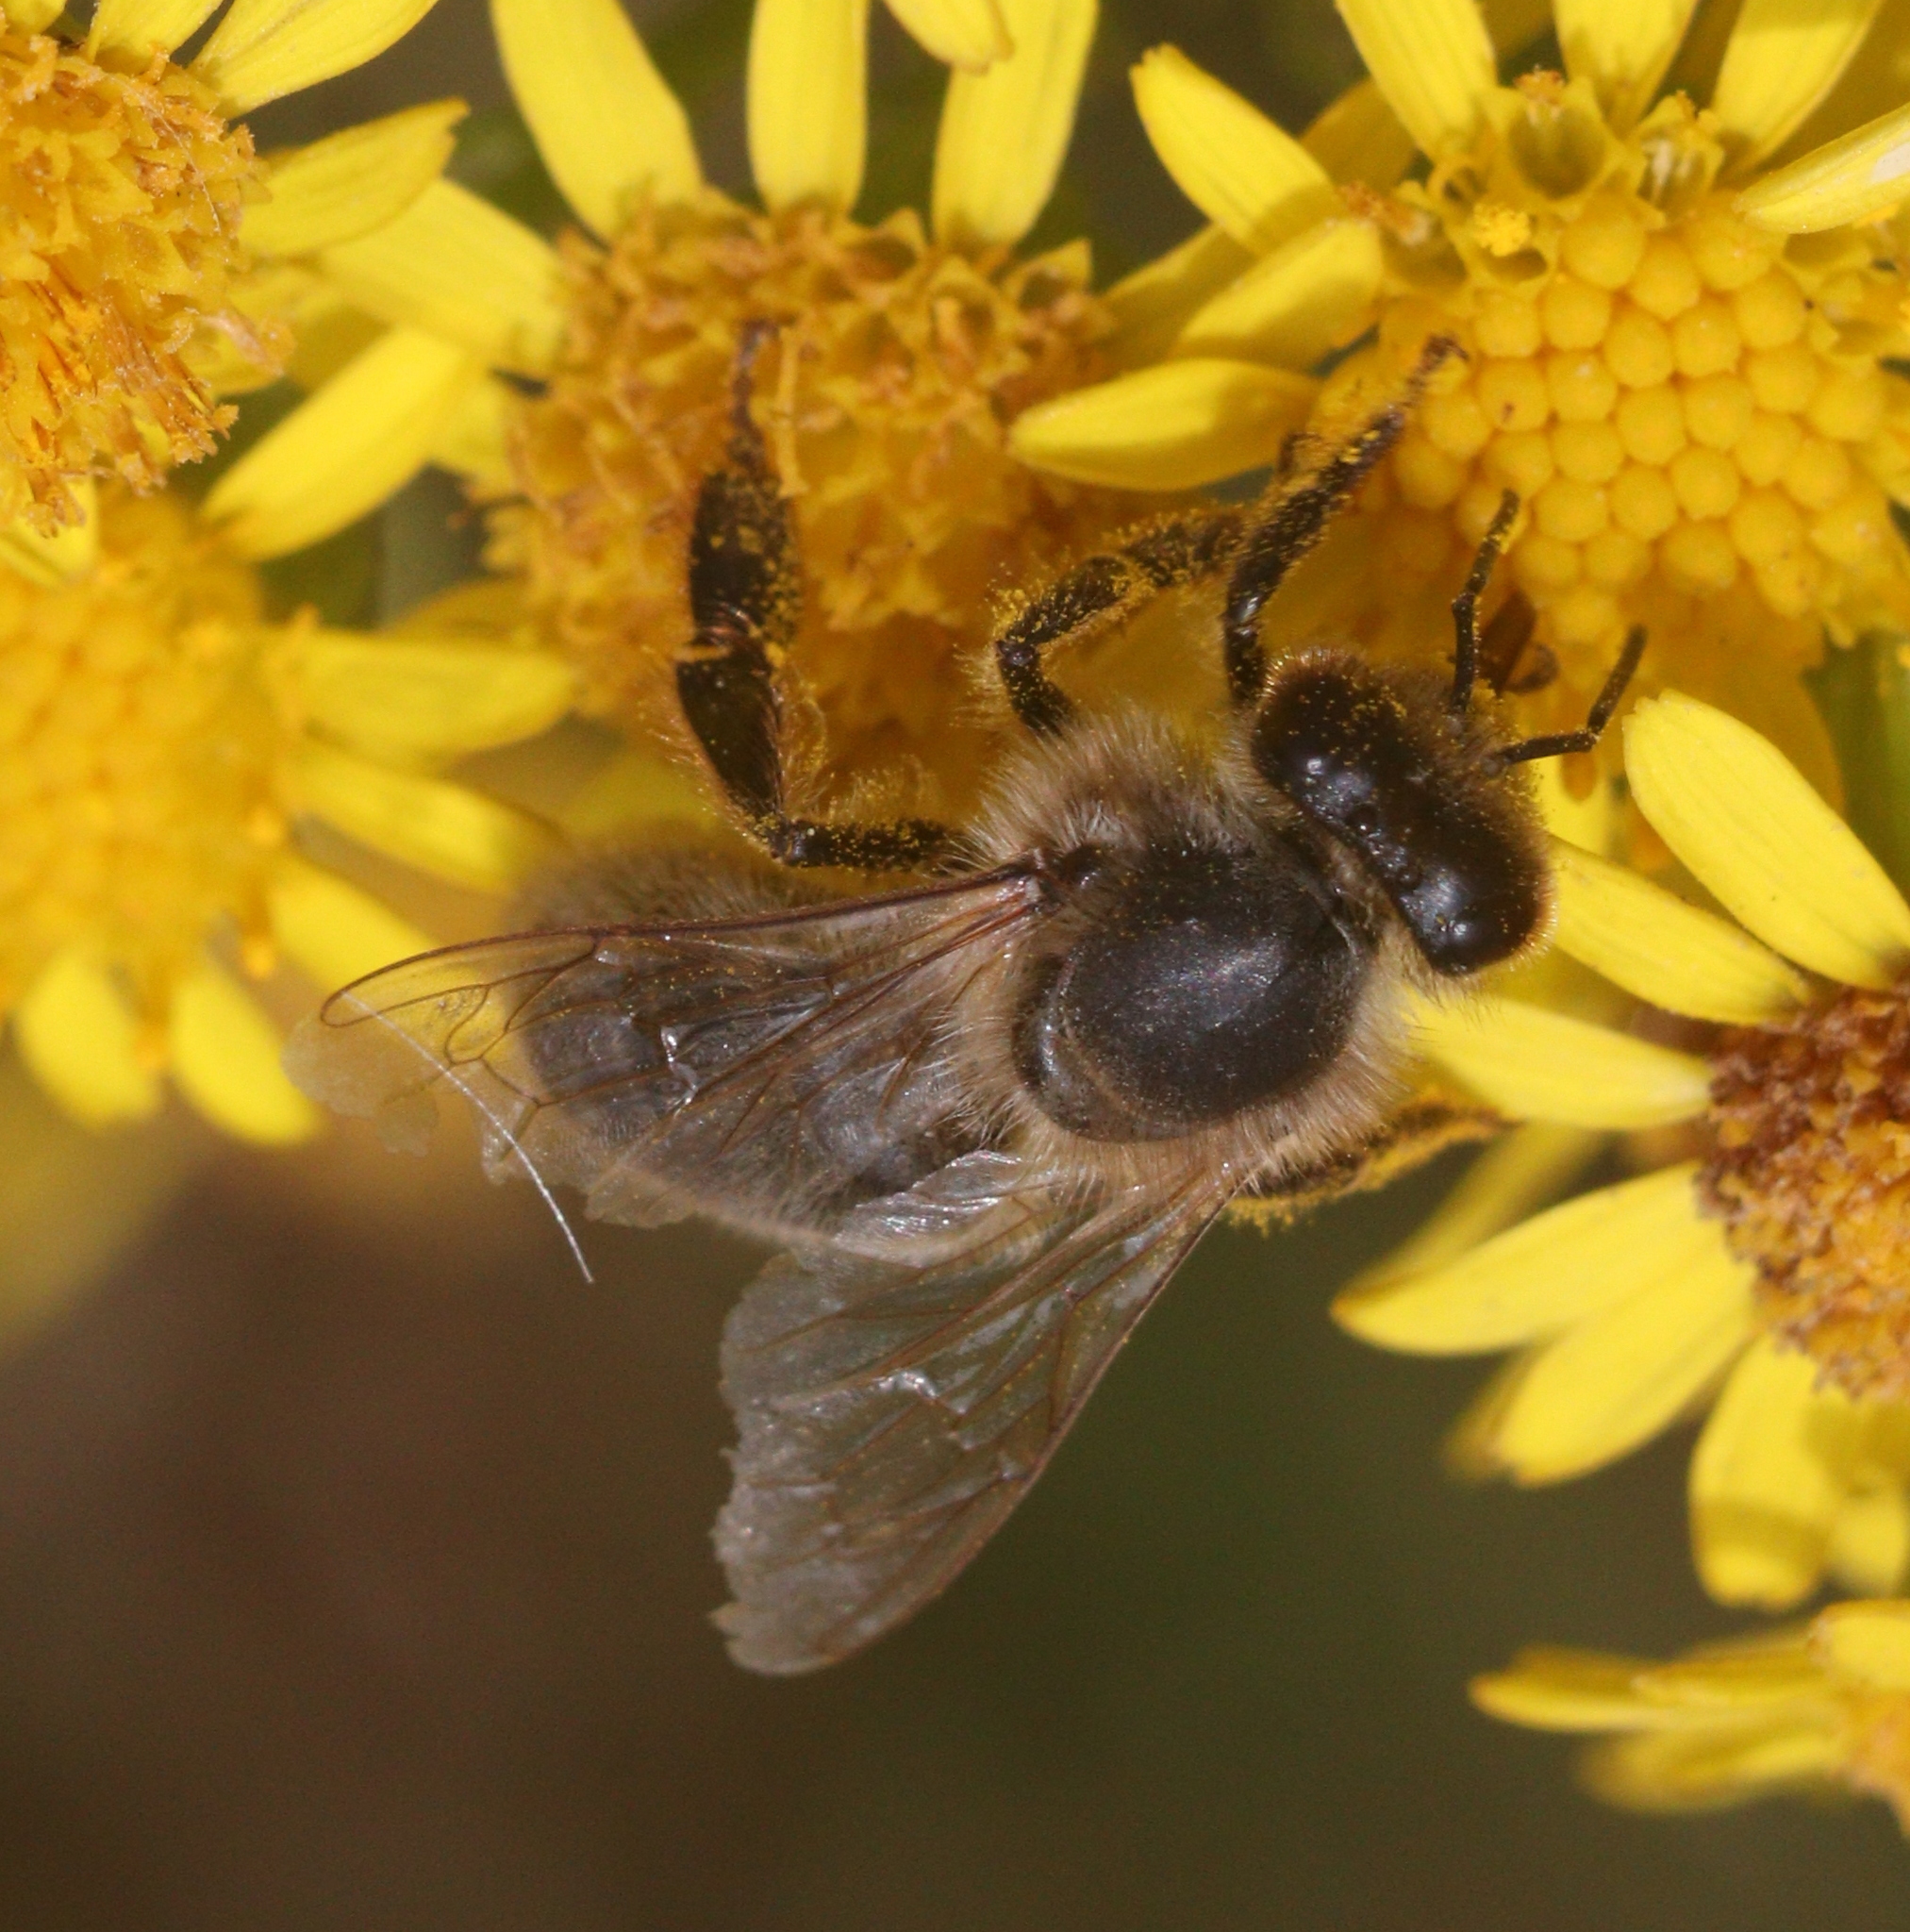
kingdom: Animalia
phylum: Arthropoda
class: Insecta
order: Hymenoptera
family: Apidae
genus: Apis
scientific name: Apis mellifera
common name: Honey bee
